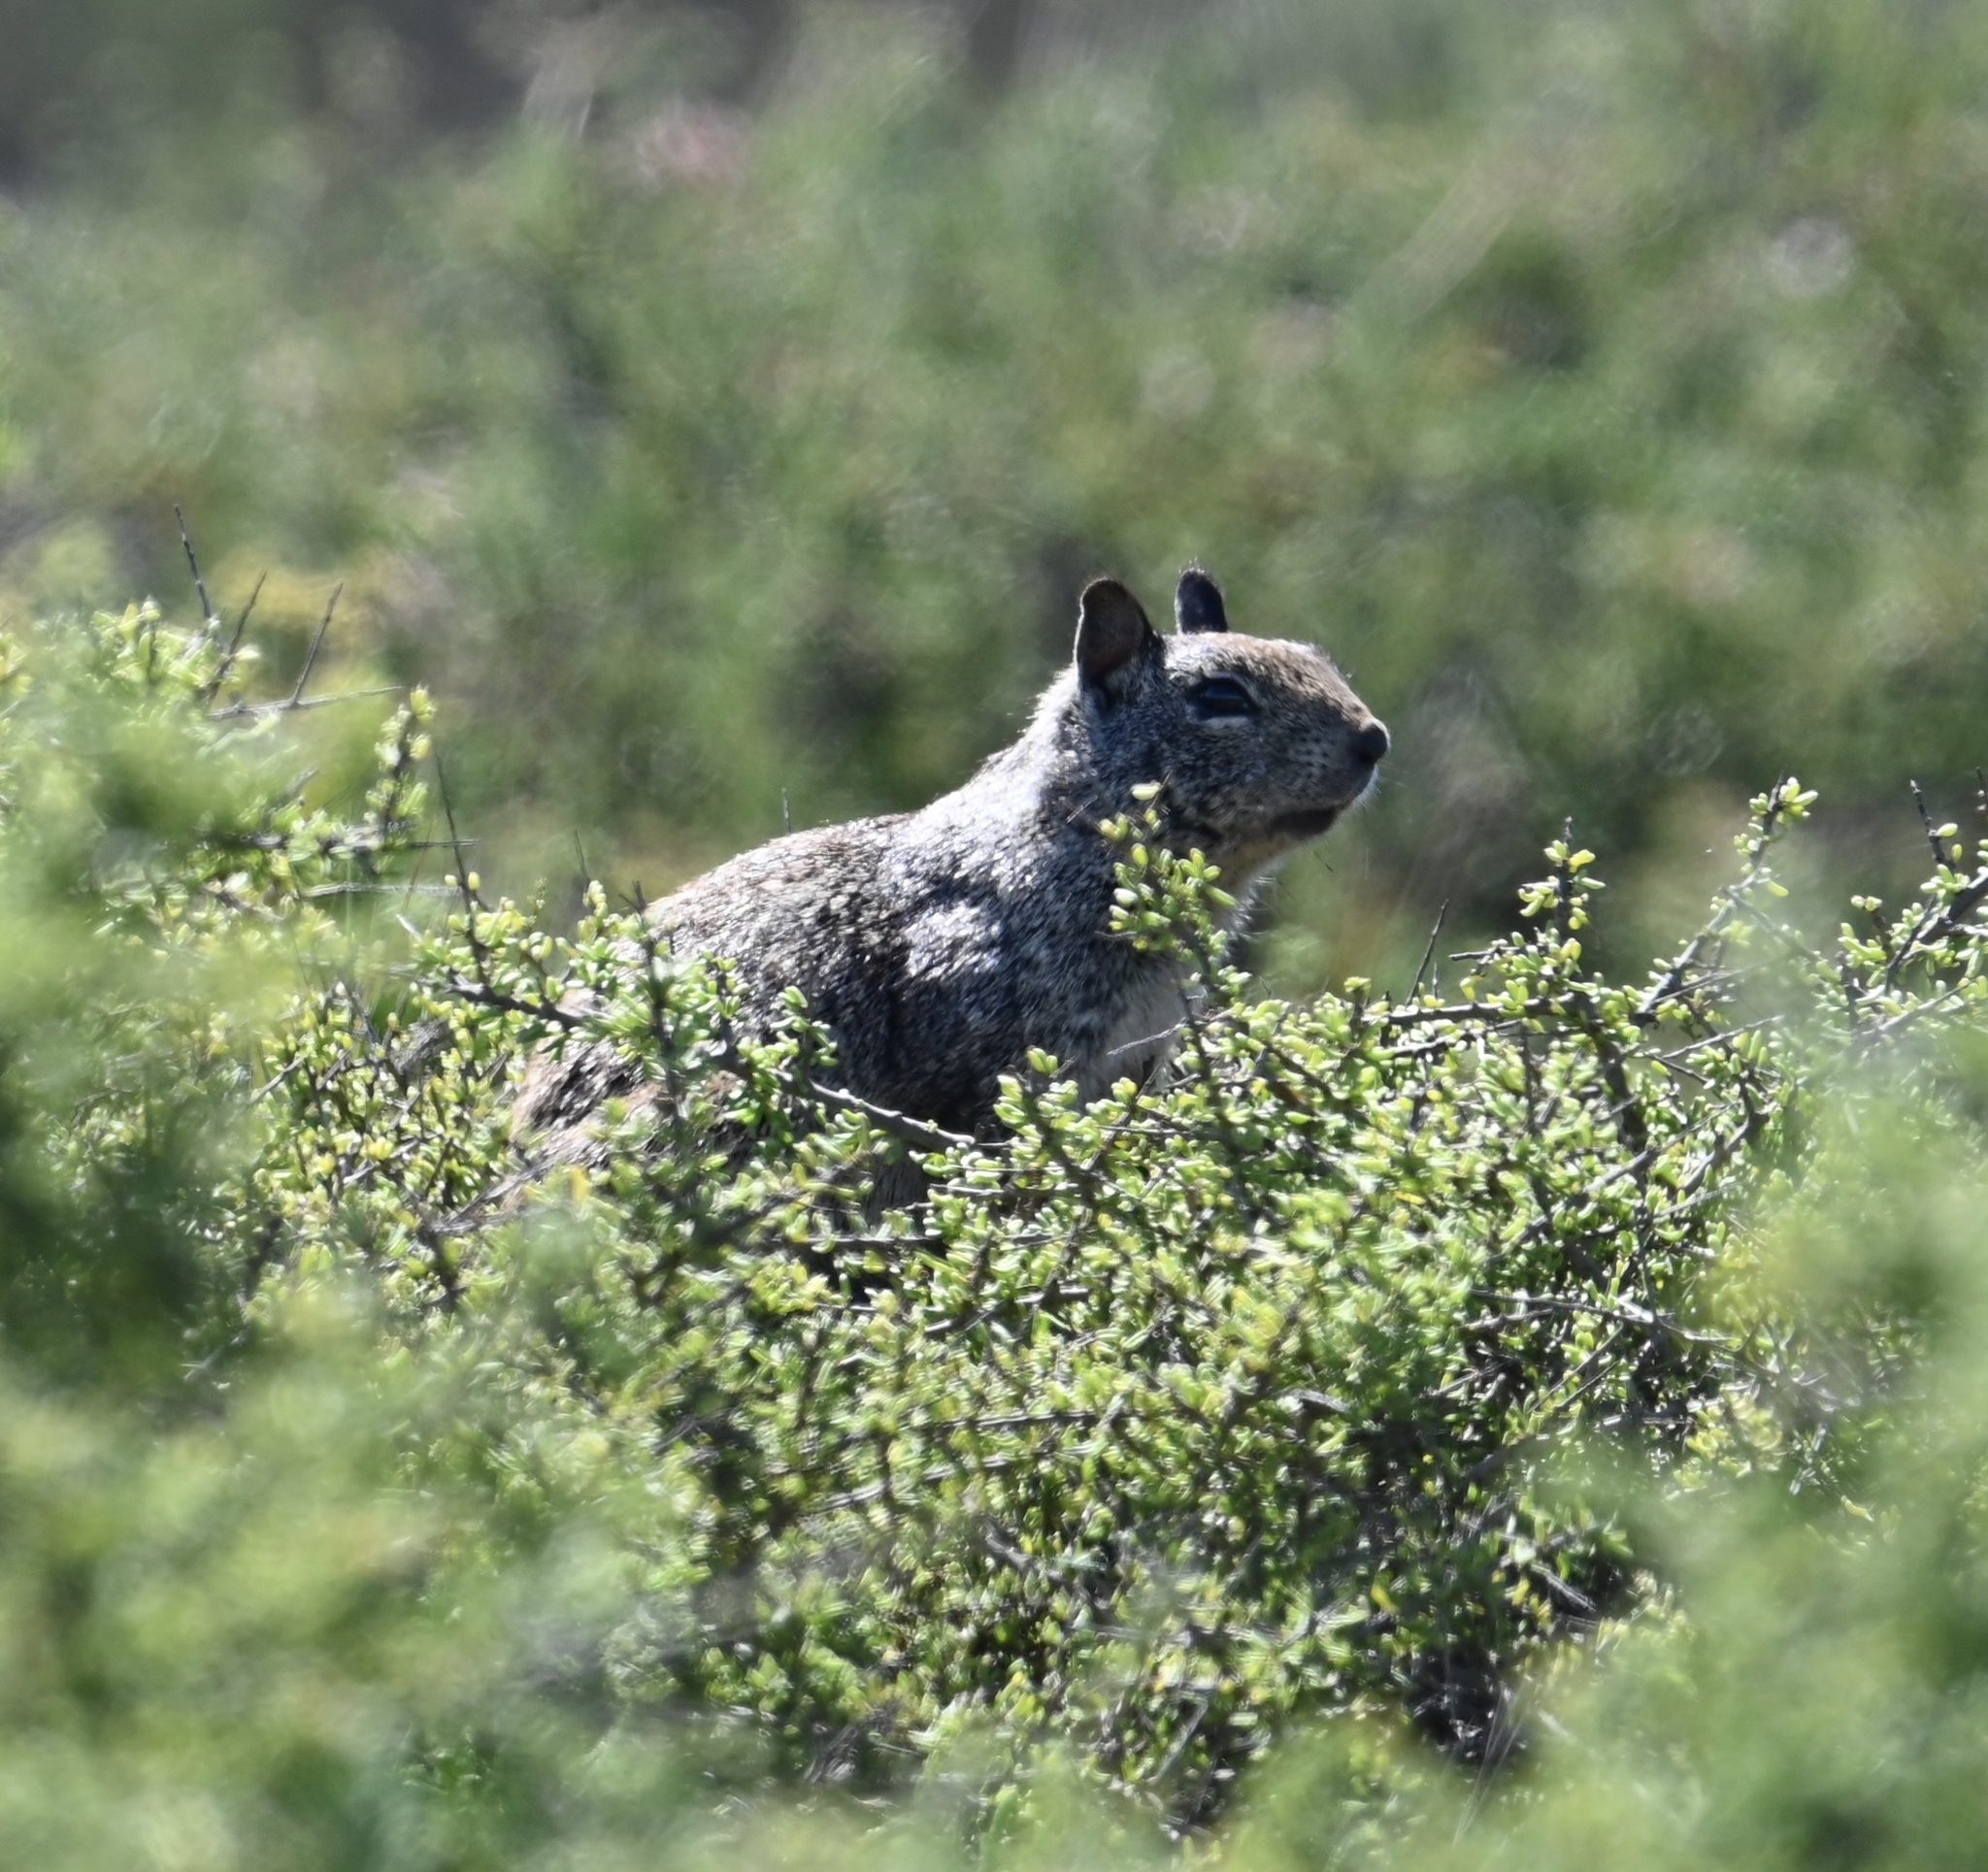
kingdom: Animalia
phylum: Chordata
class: Mammalia
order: Rodentia
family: Sciuridae
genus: Otospermophilus
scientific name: Otospermophilus beecheyi
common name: California ground squirrel
